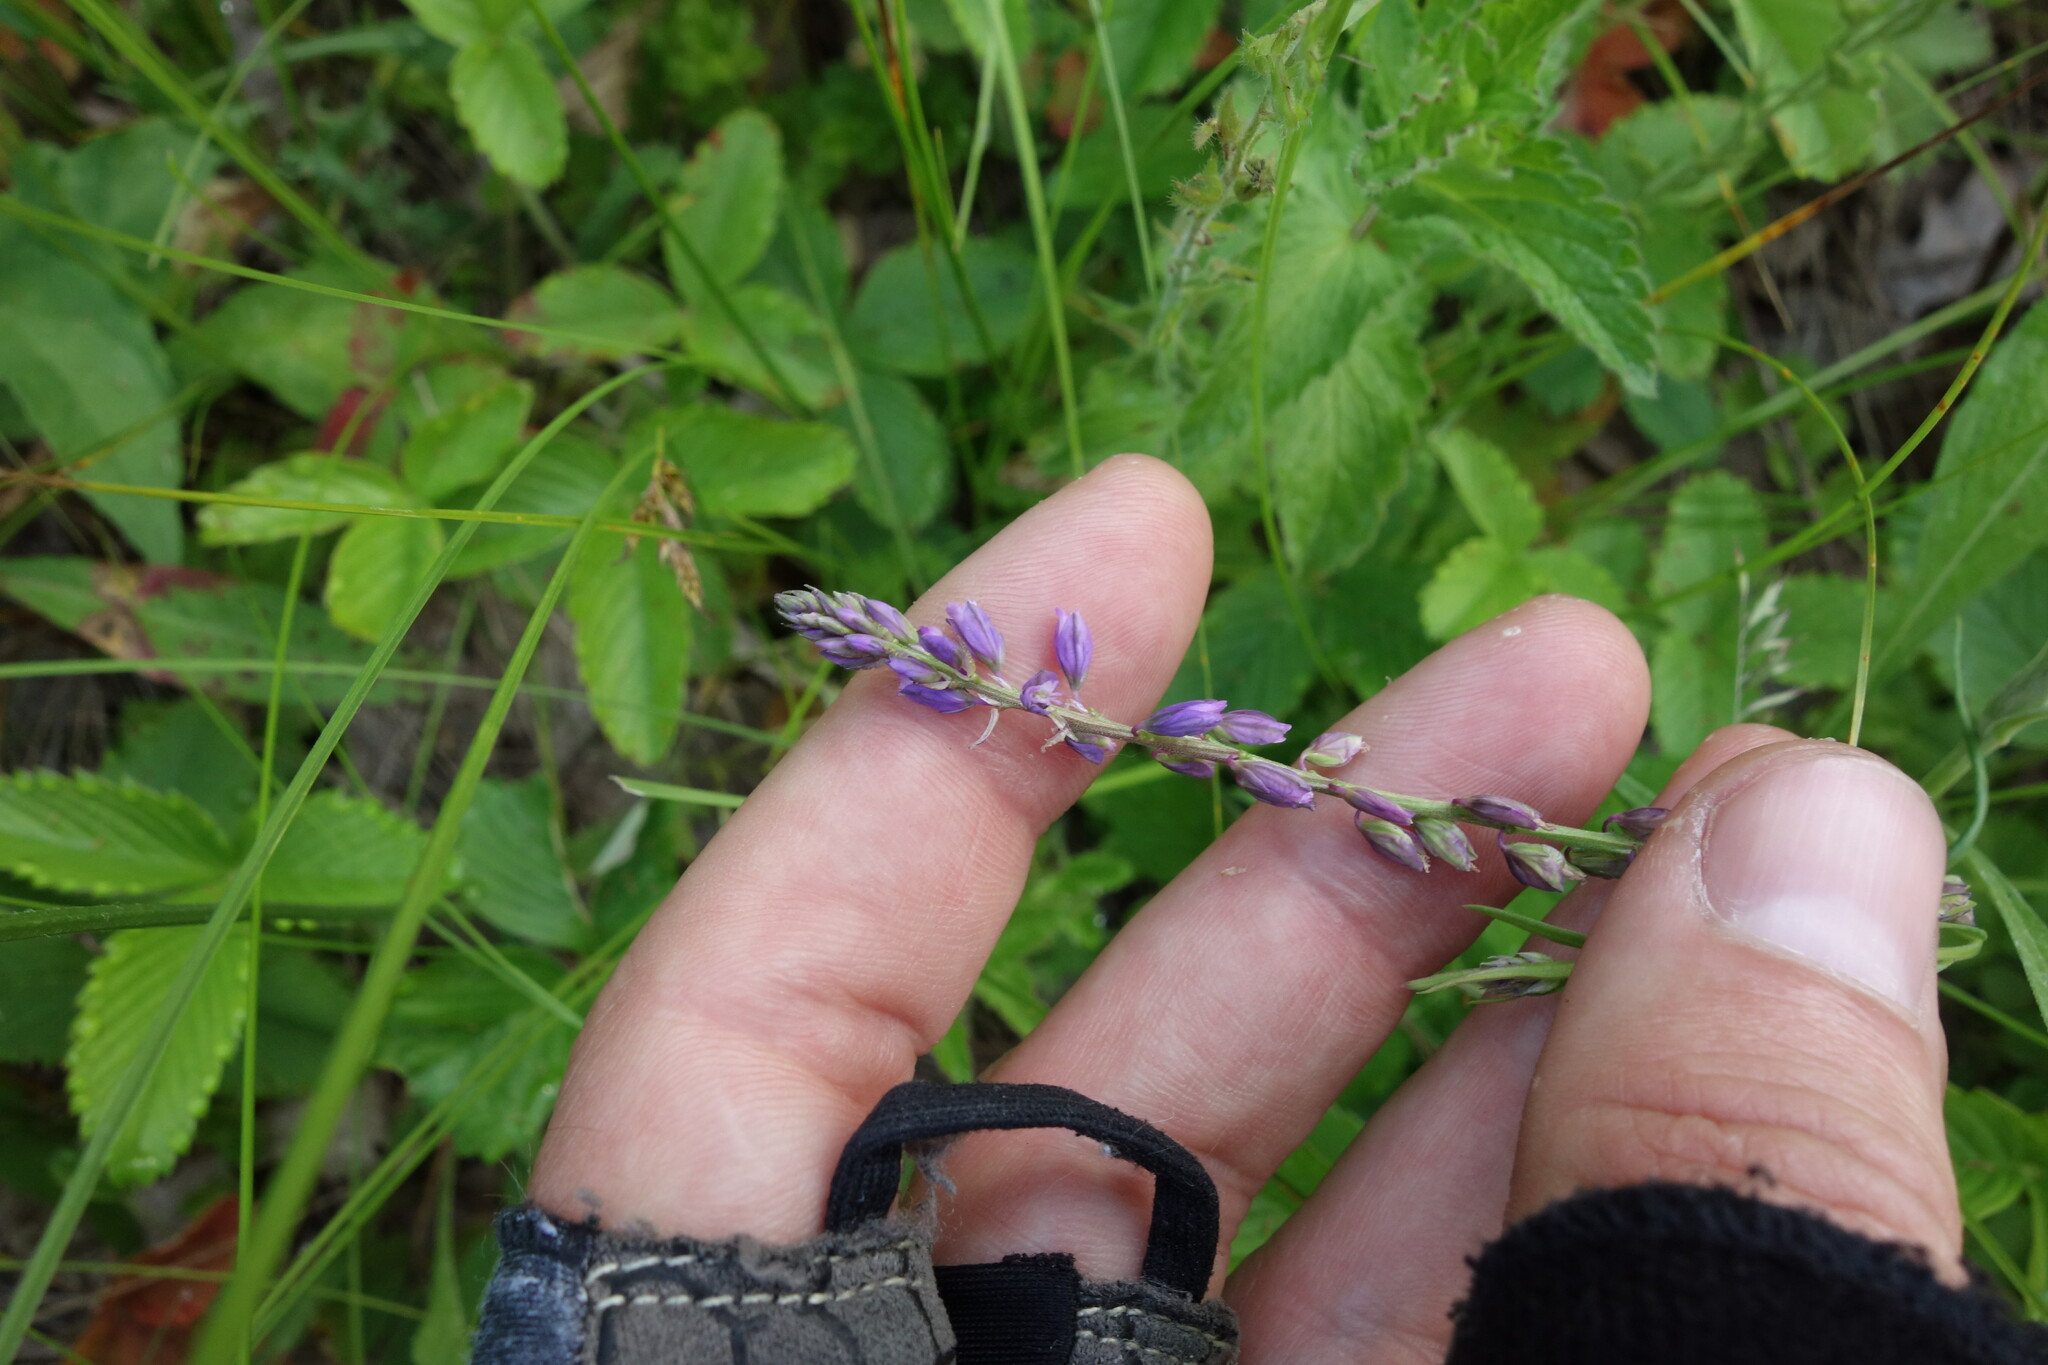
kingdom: Plantae
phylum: Tracheophyta
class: Magnoliopsida
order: Fabales
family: Polygalaceae
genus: Polygala
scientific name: Polygala comosa
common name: Tufted milkwort
